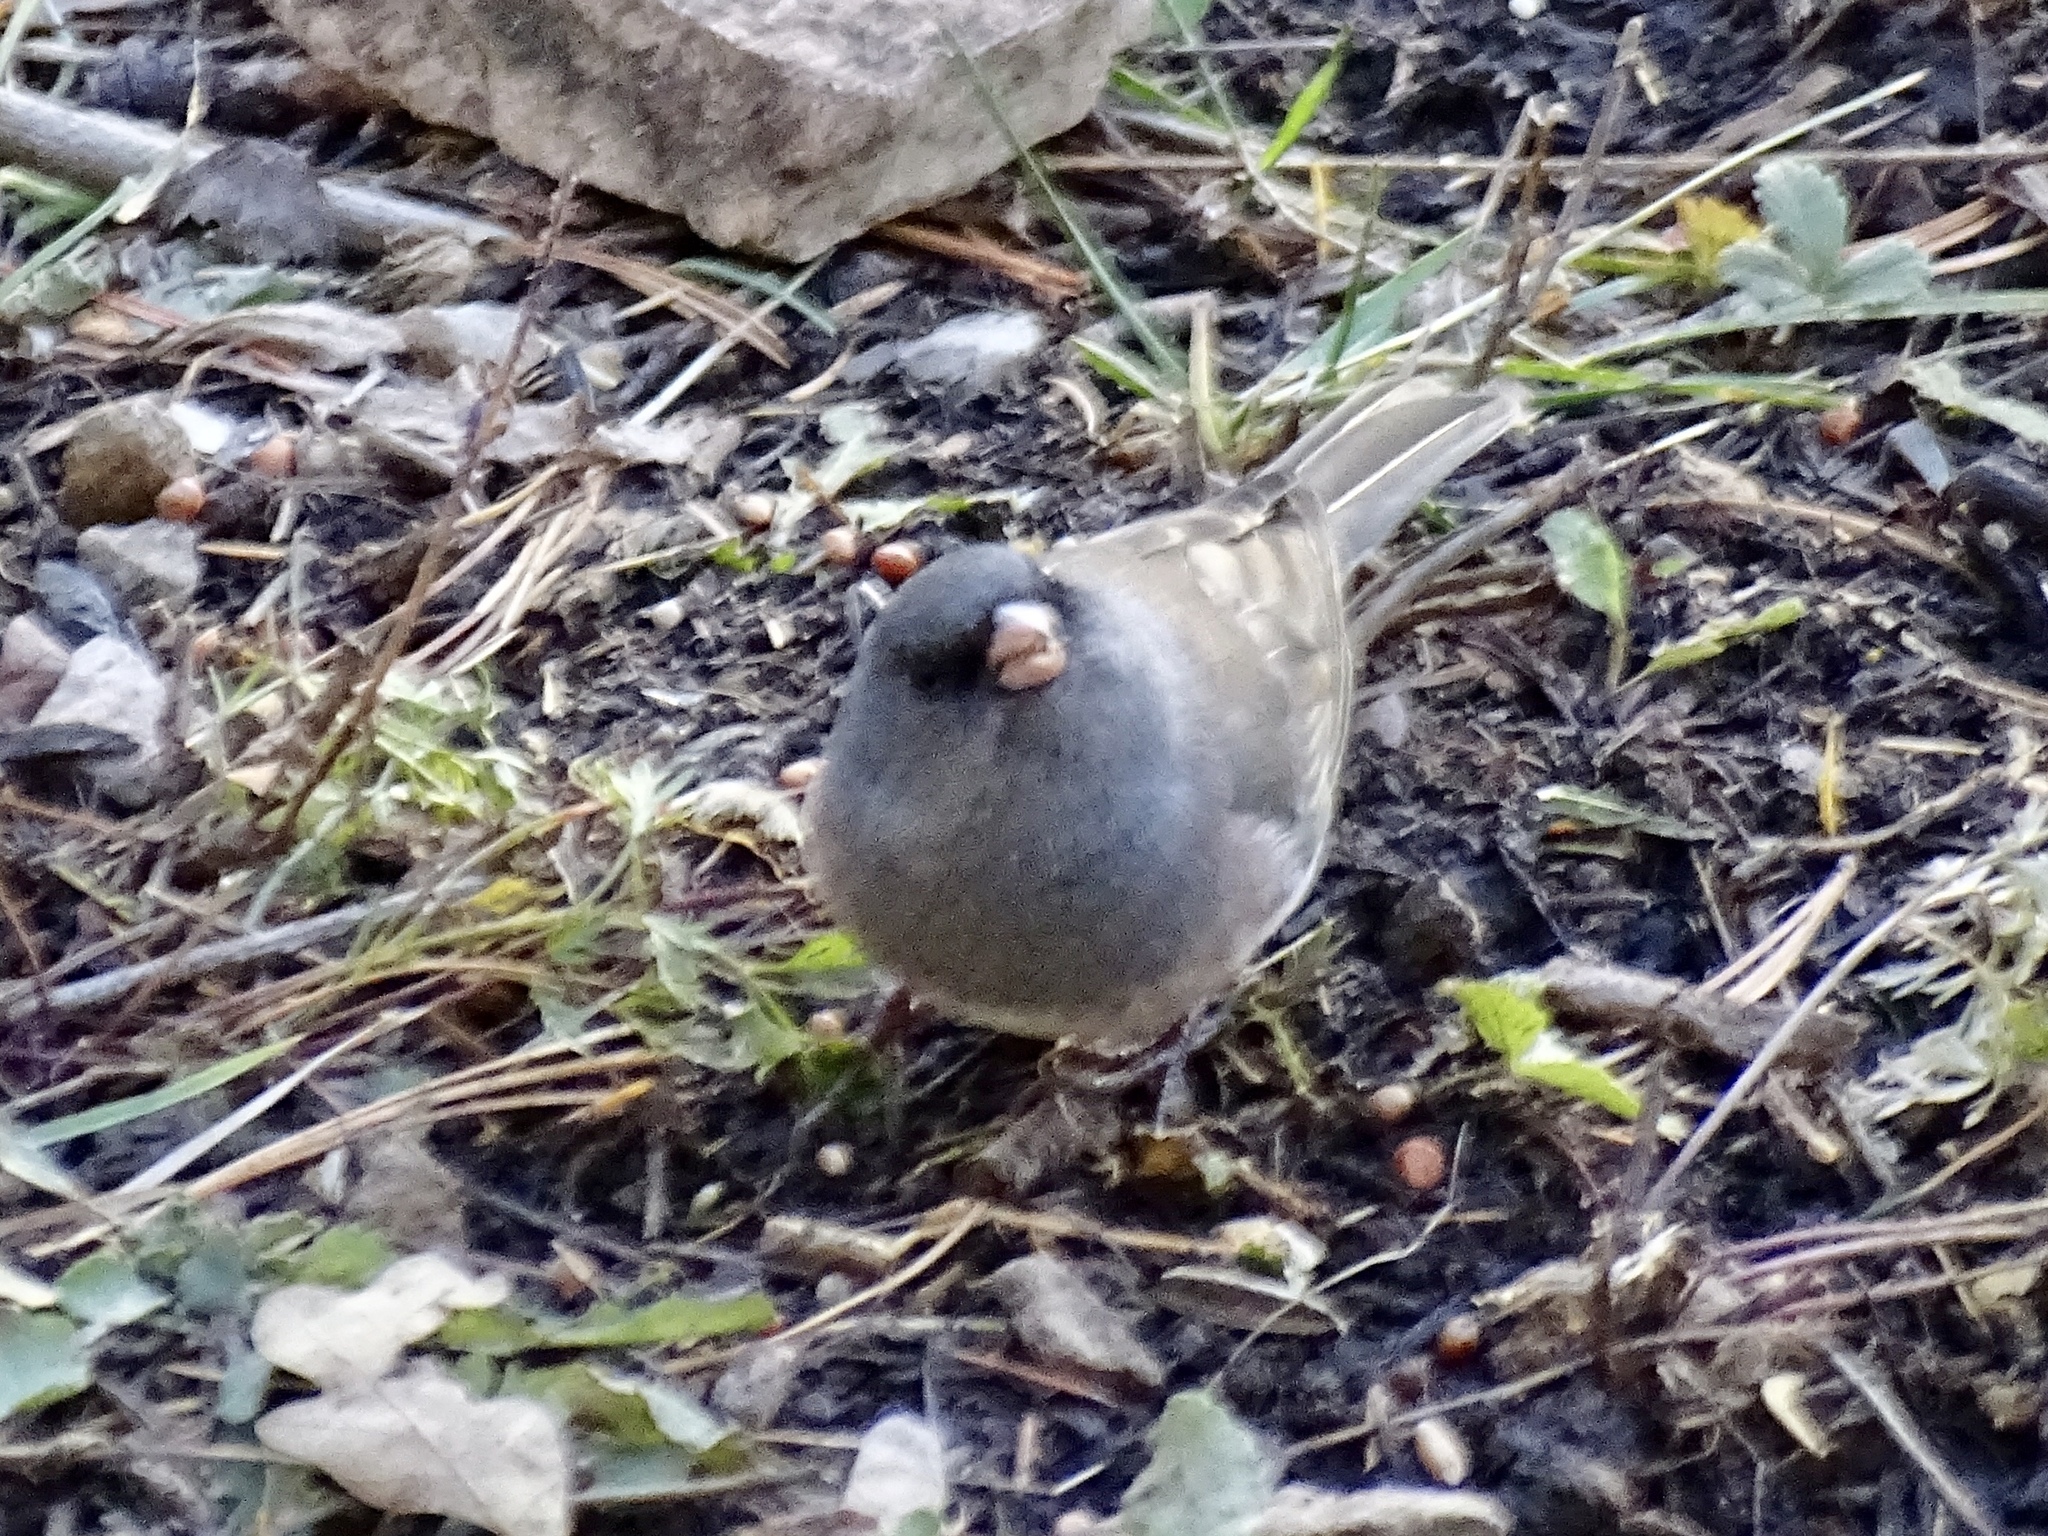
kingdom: Animalia
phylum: Chordata
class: Aves
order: Passeriformes
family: Passerellidae
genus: Junco
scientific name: Junco hyemalis
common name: Dark-eyed junco
